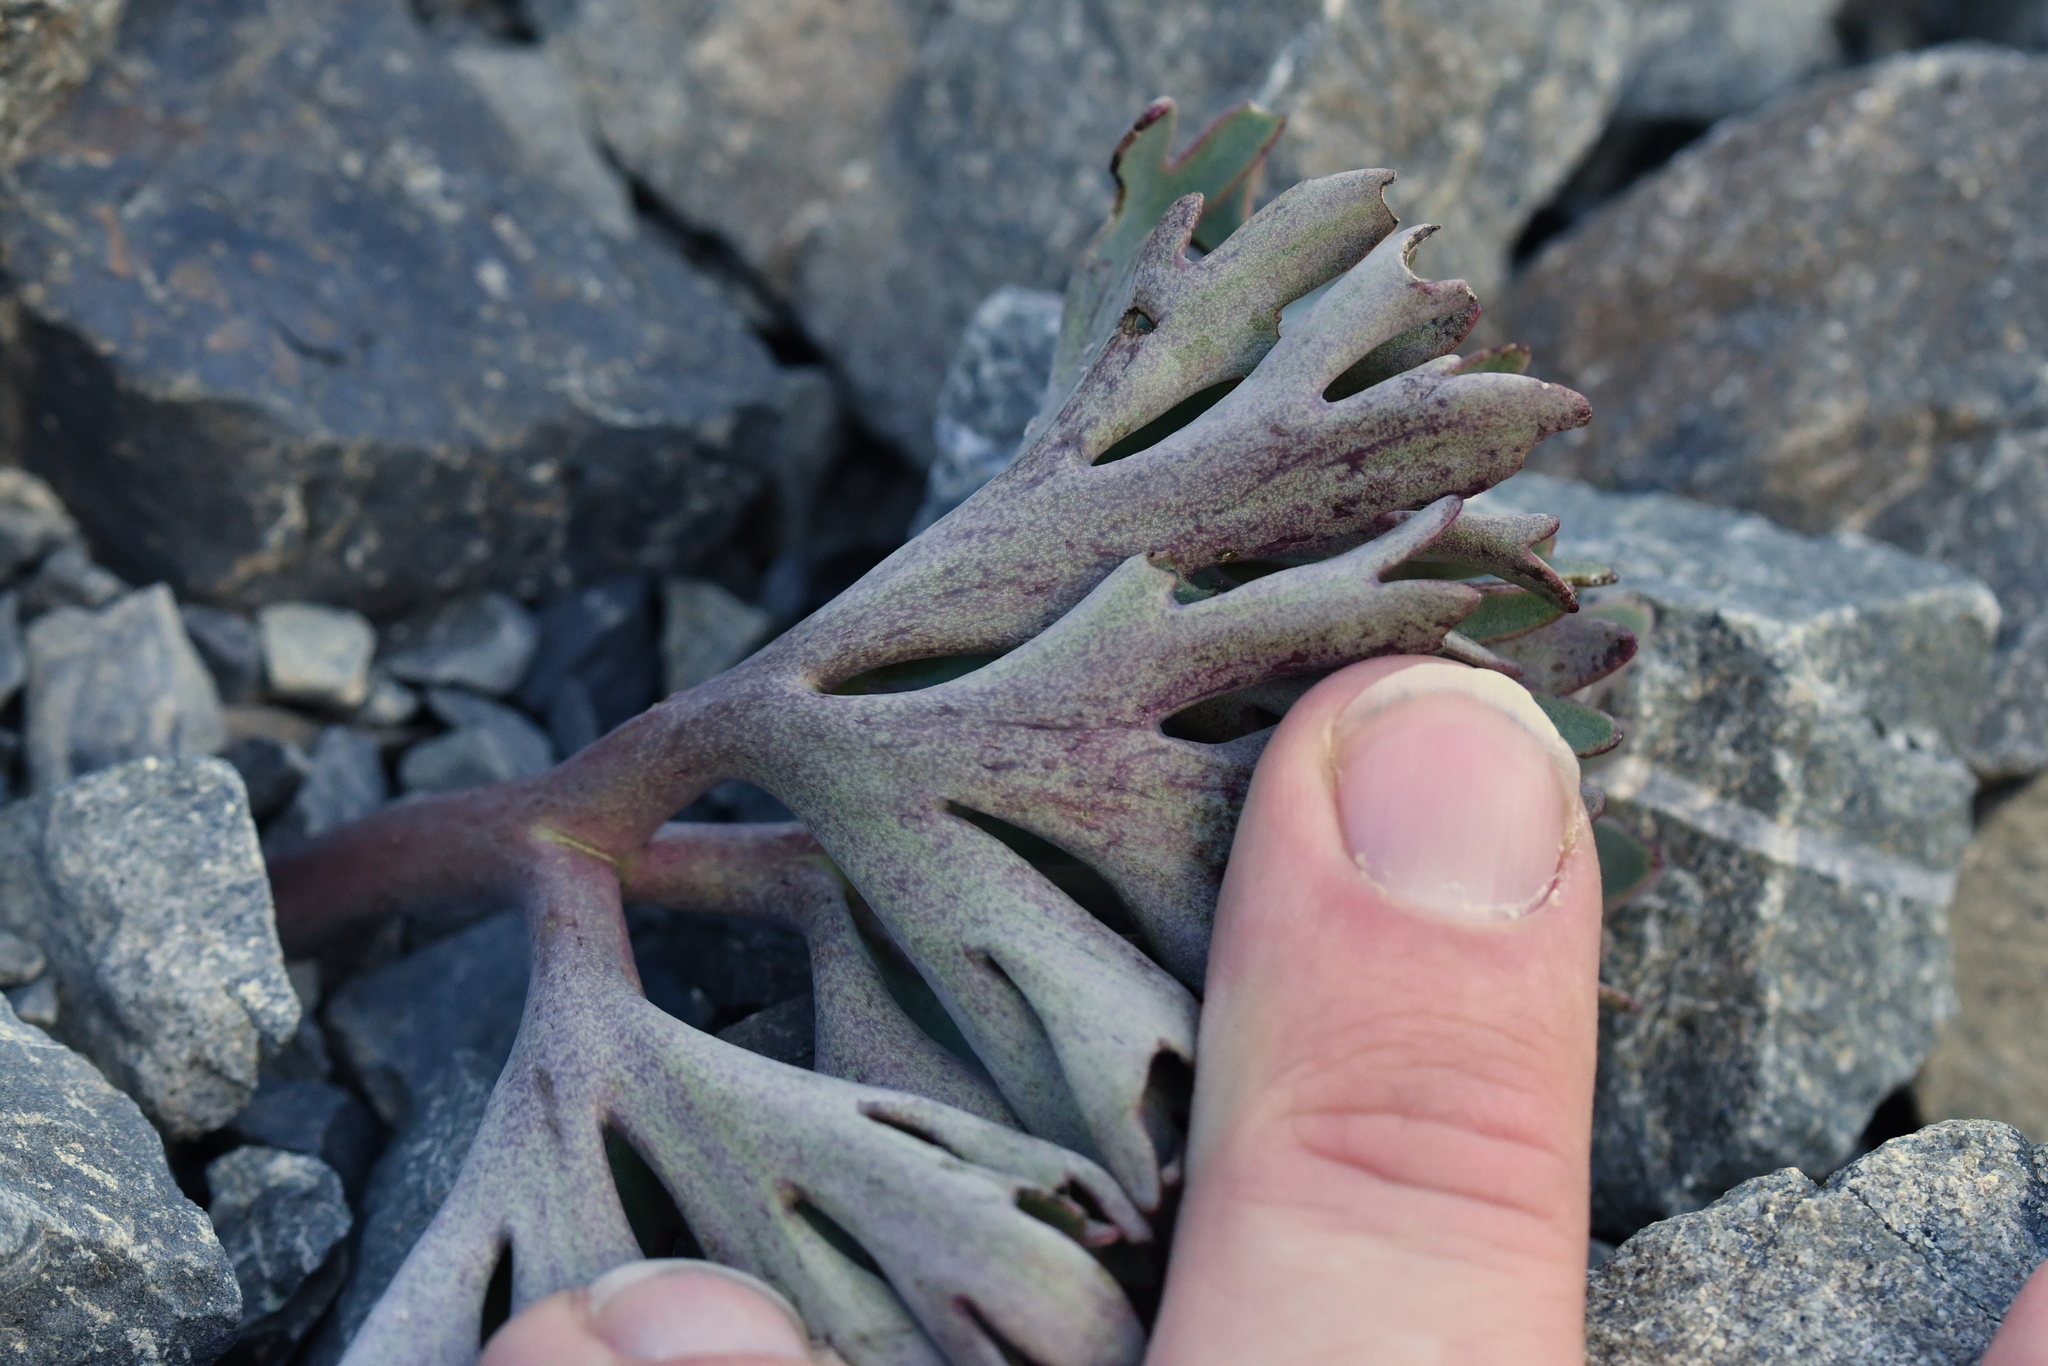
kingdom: Plantae
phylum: Tracheophyta
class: Magnoliopsida
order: Ranunculales
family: Ranunculaceae
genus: Ranunculus
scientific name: Ranunculus haastii
